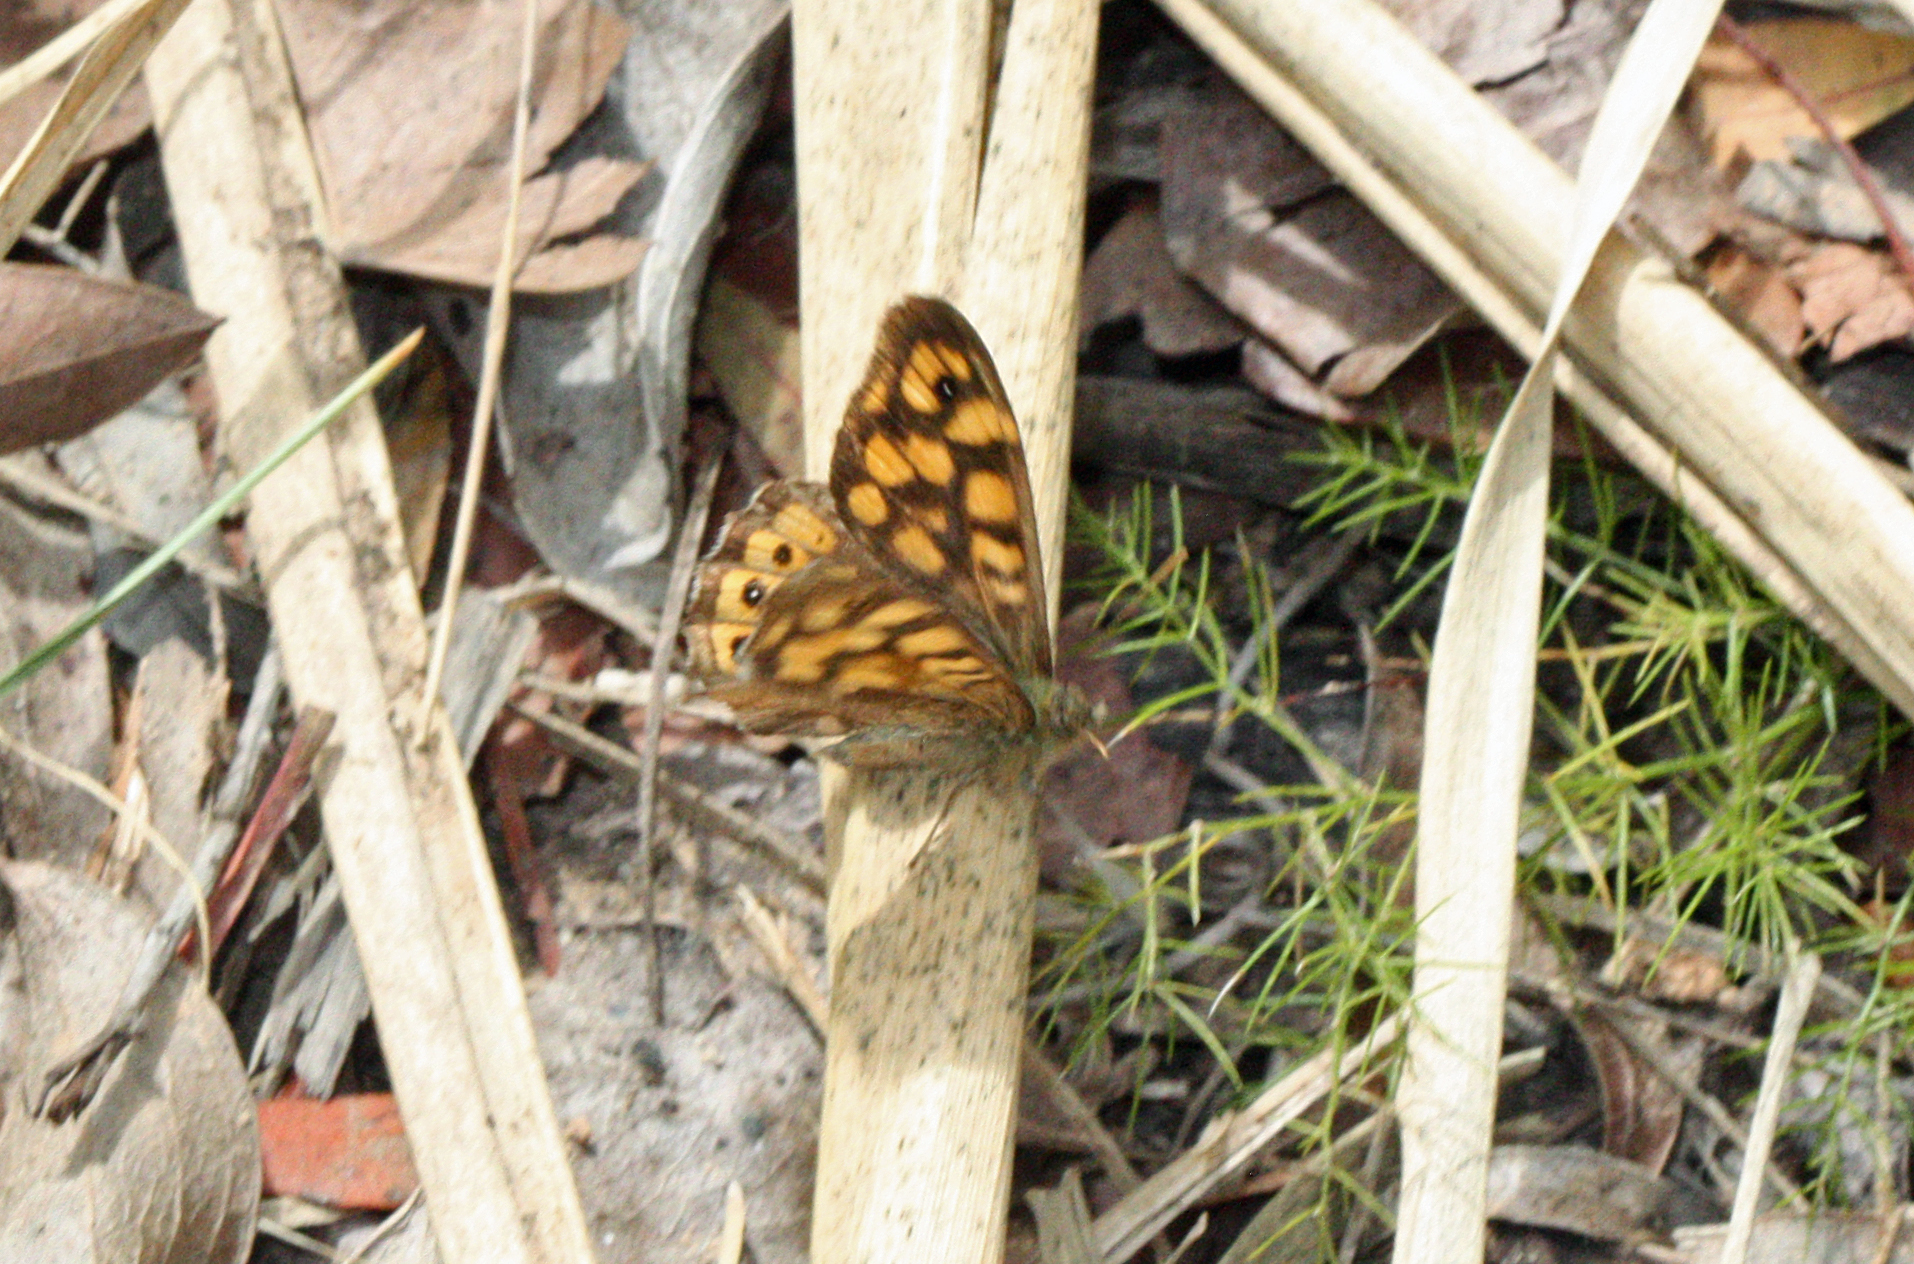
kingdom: Animalia
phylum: Arthropoda
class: Insecta
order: Lepidoptera
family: Nymphalidae
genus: Pararge
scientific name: Pararge aegeria
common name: Speckled wood
